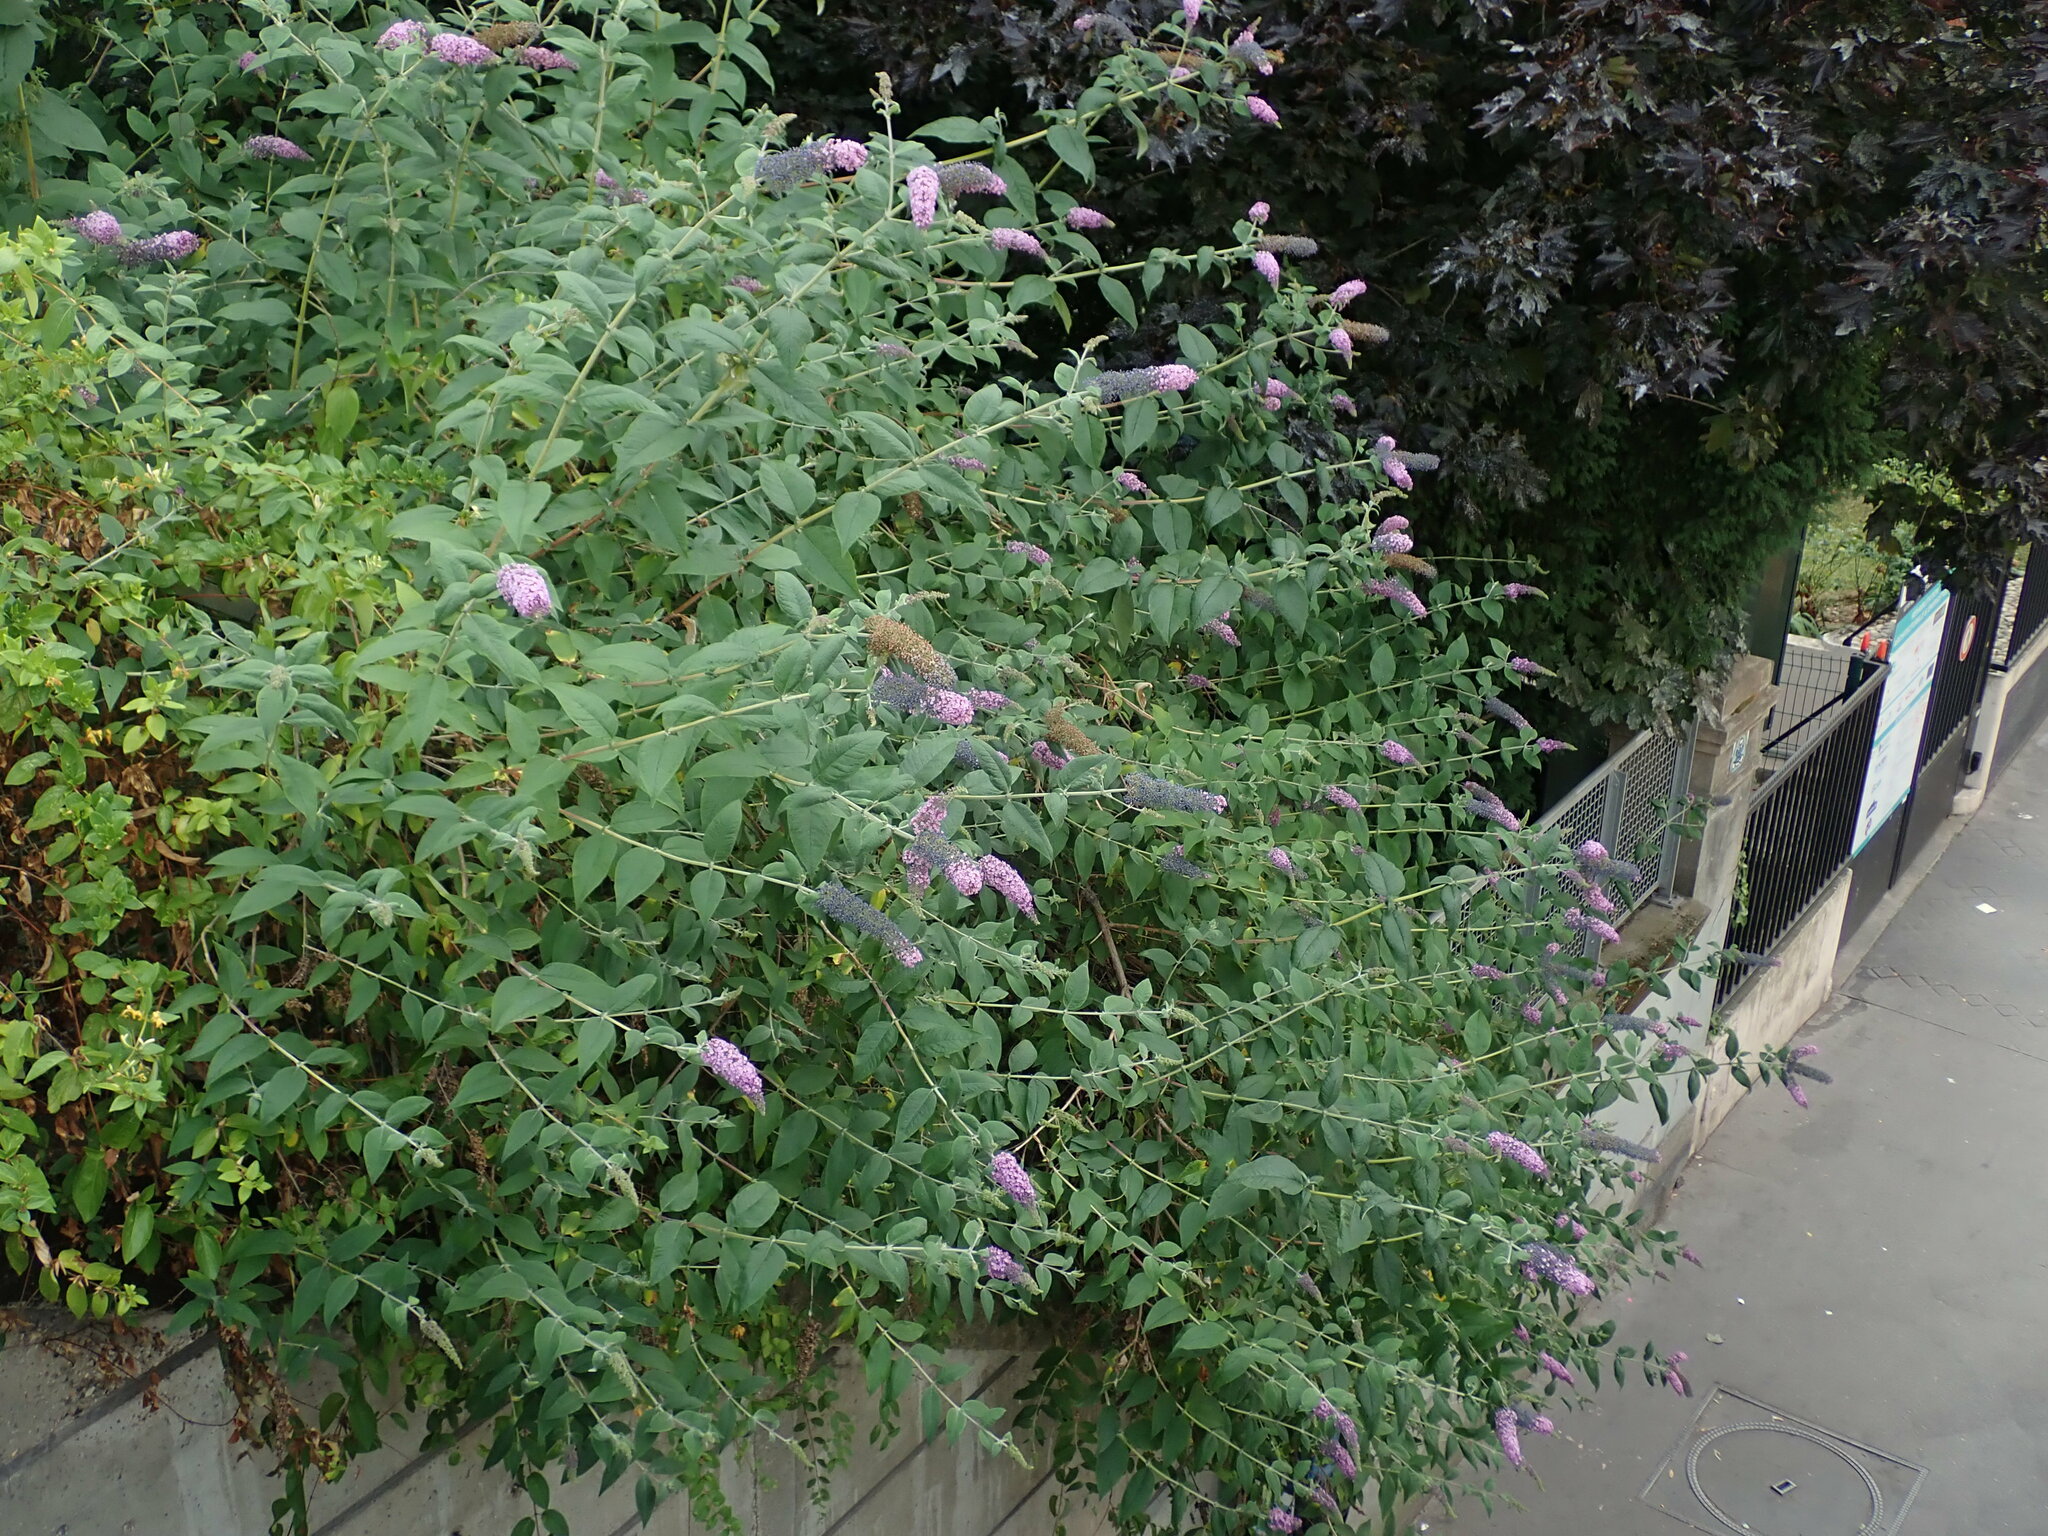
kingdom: Plantae
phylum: Tracheophyta
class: Magnoliopsida
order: Lamiales
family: Scrophulariaceae
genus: Buddleja
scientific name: Buddleja davidii
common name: Butterfly-bush
